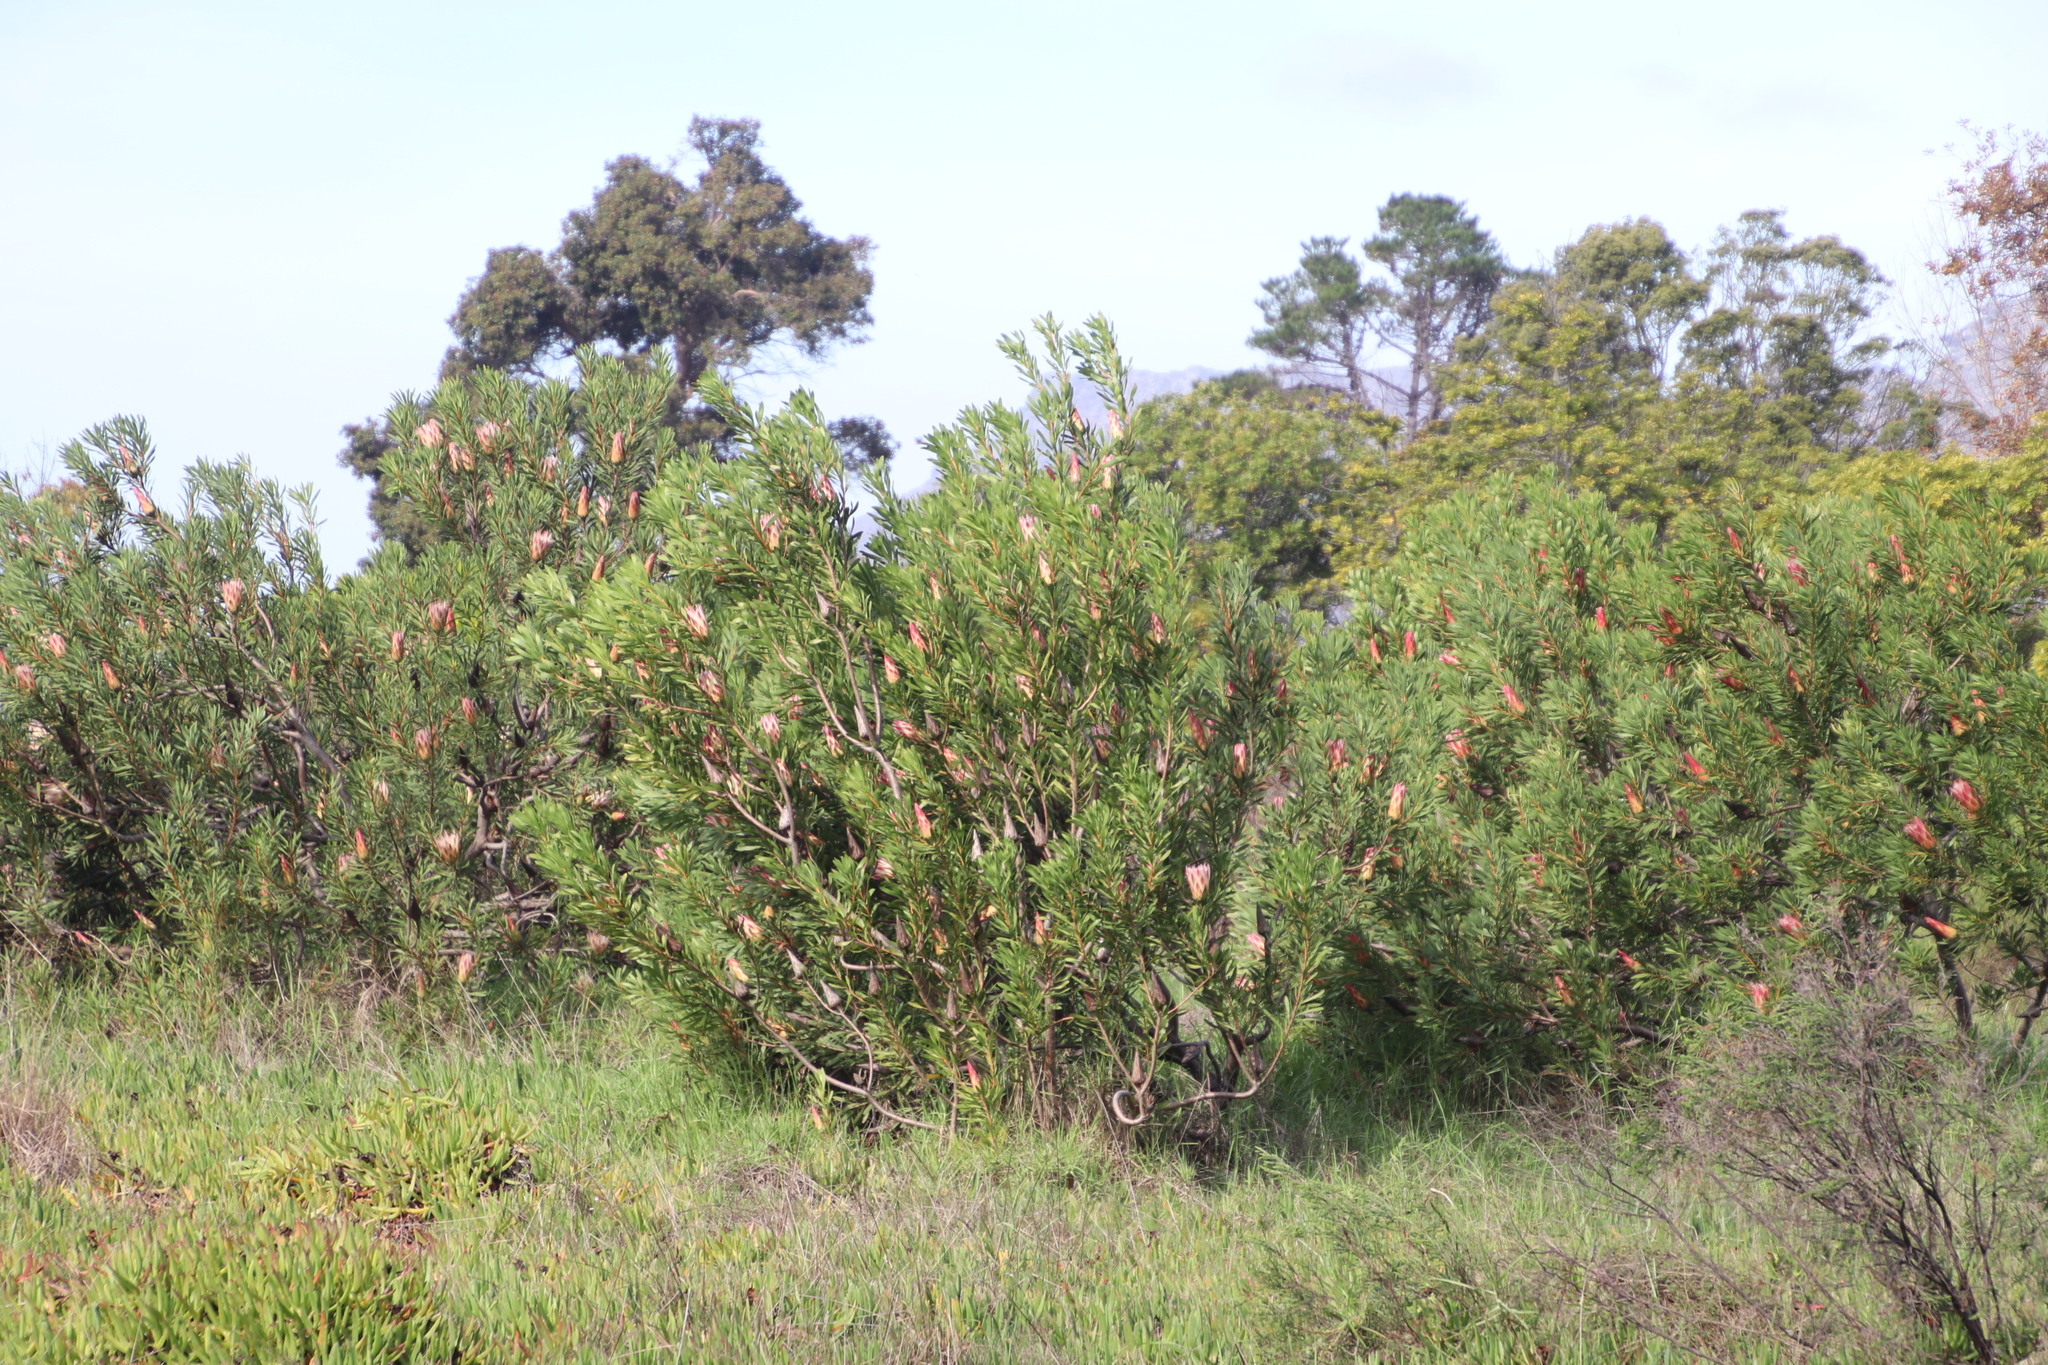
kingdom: Plantae
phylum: Tracheophyta
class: Magnoliopsida
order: Proteales
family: Proteaceae
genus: Protea
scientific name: Protea repens
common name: Sugarbush
